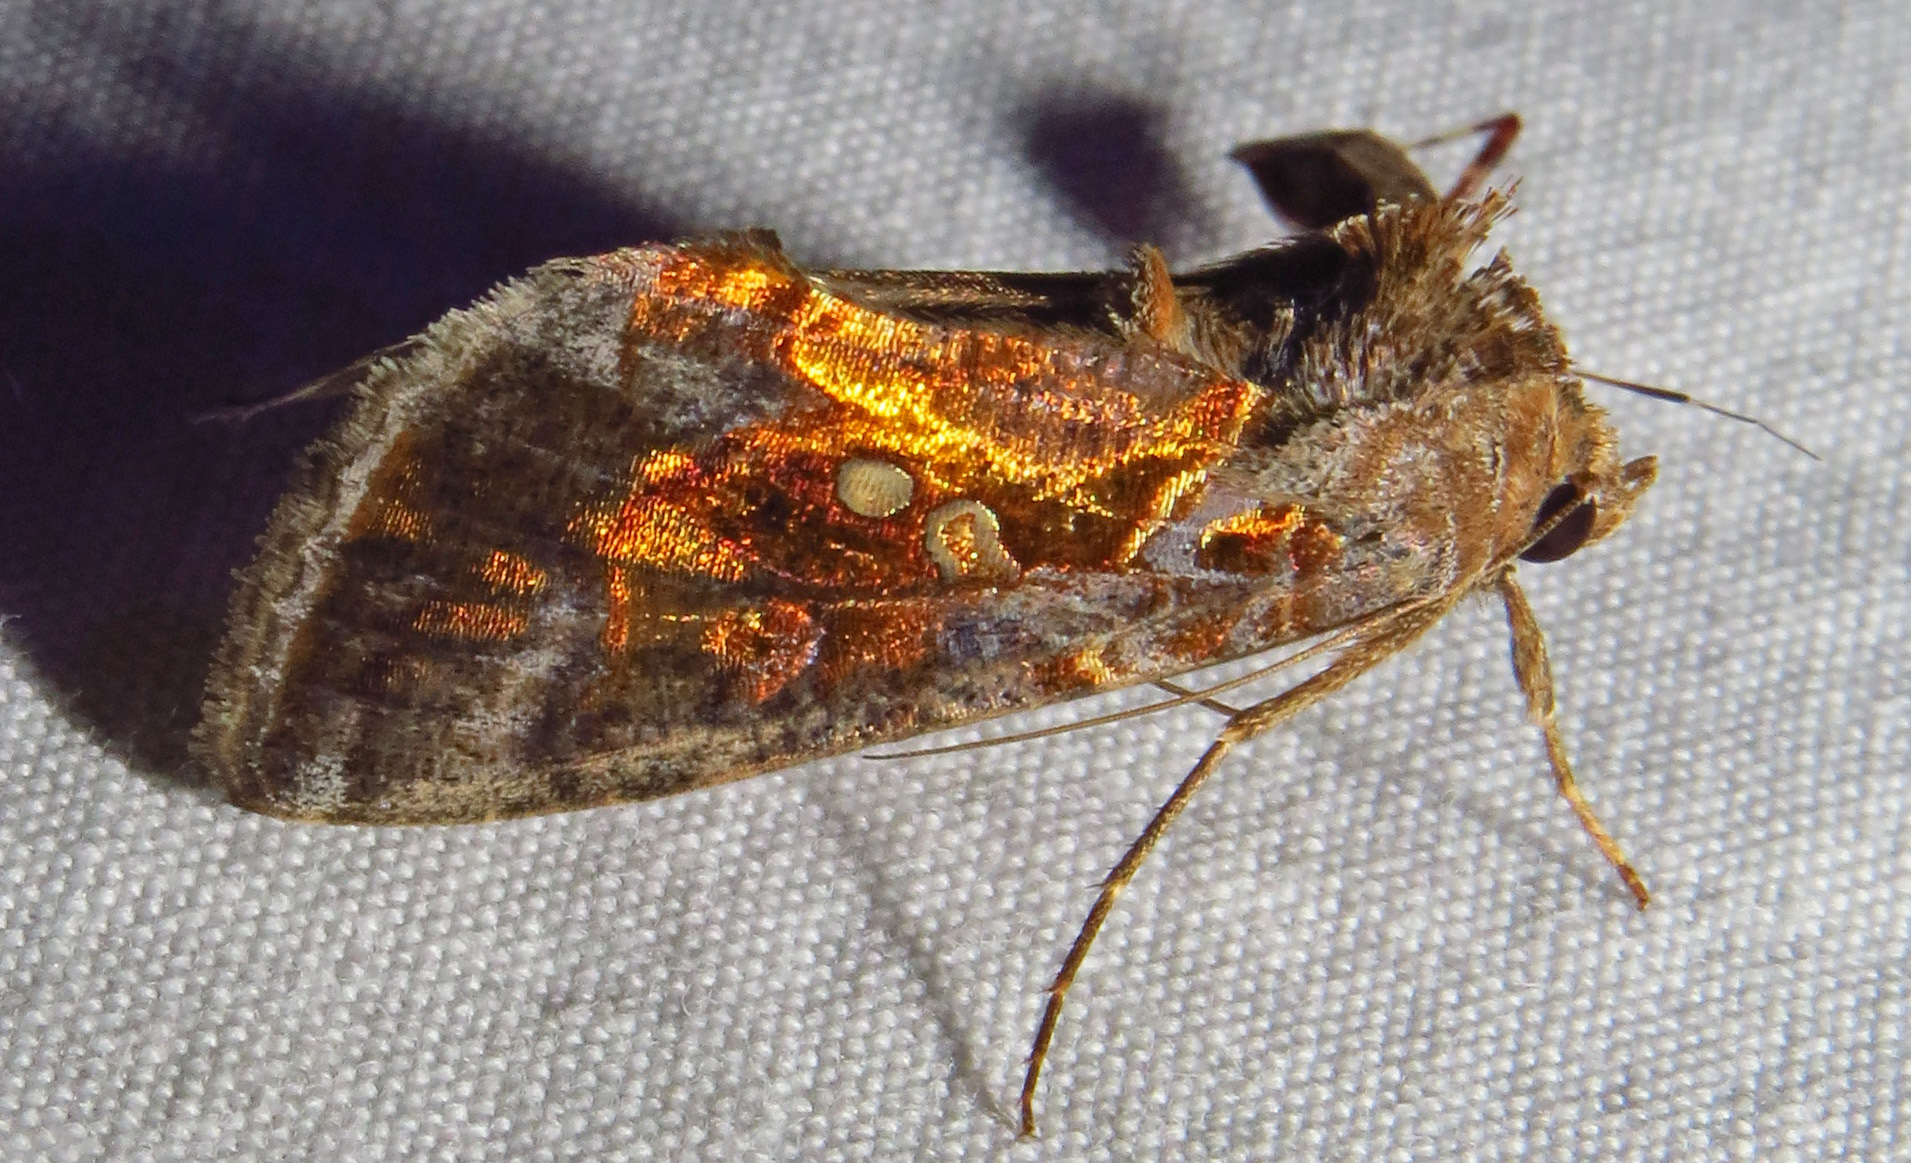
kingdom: Animalia
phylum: Arthropoda
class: Insecta
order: Lepidoptera
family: Noctuidae
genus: Chrysodeixis
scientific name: Chrysodeixis includens
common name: Cutworm moth
